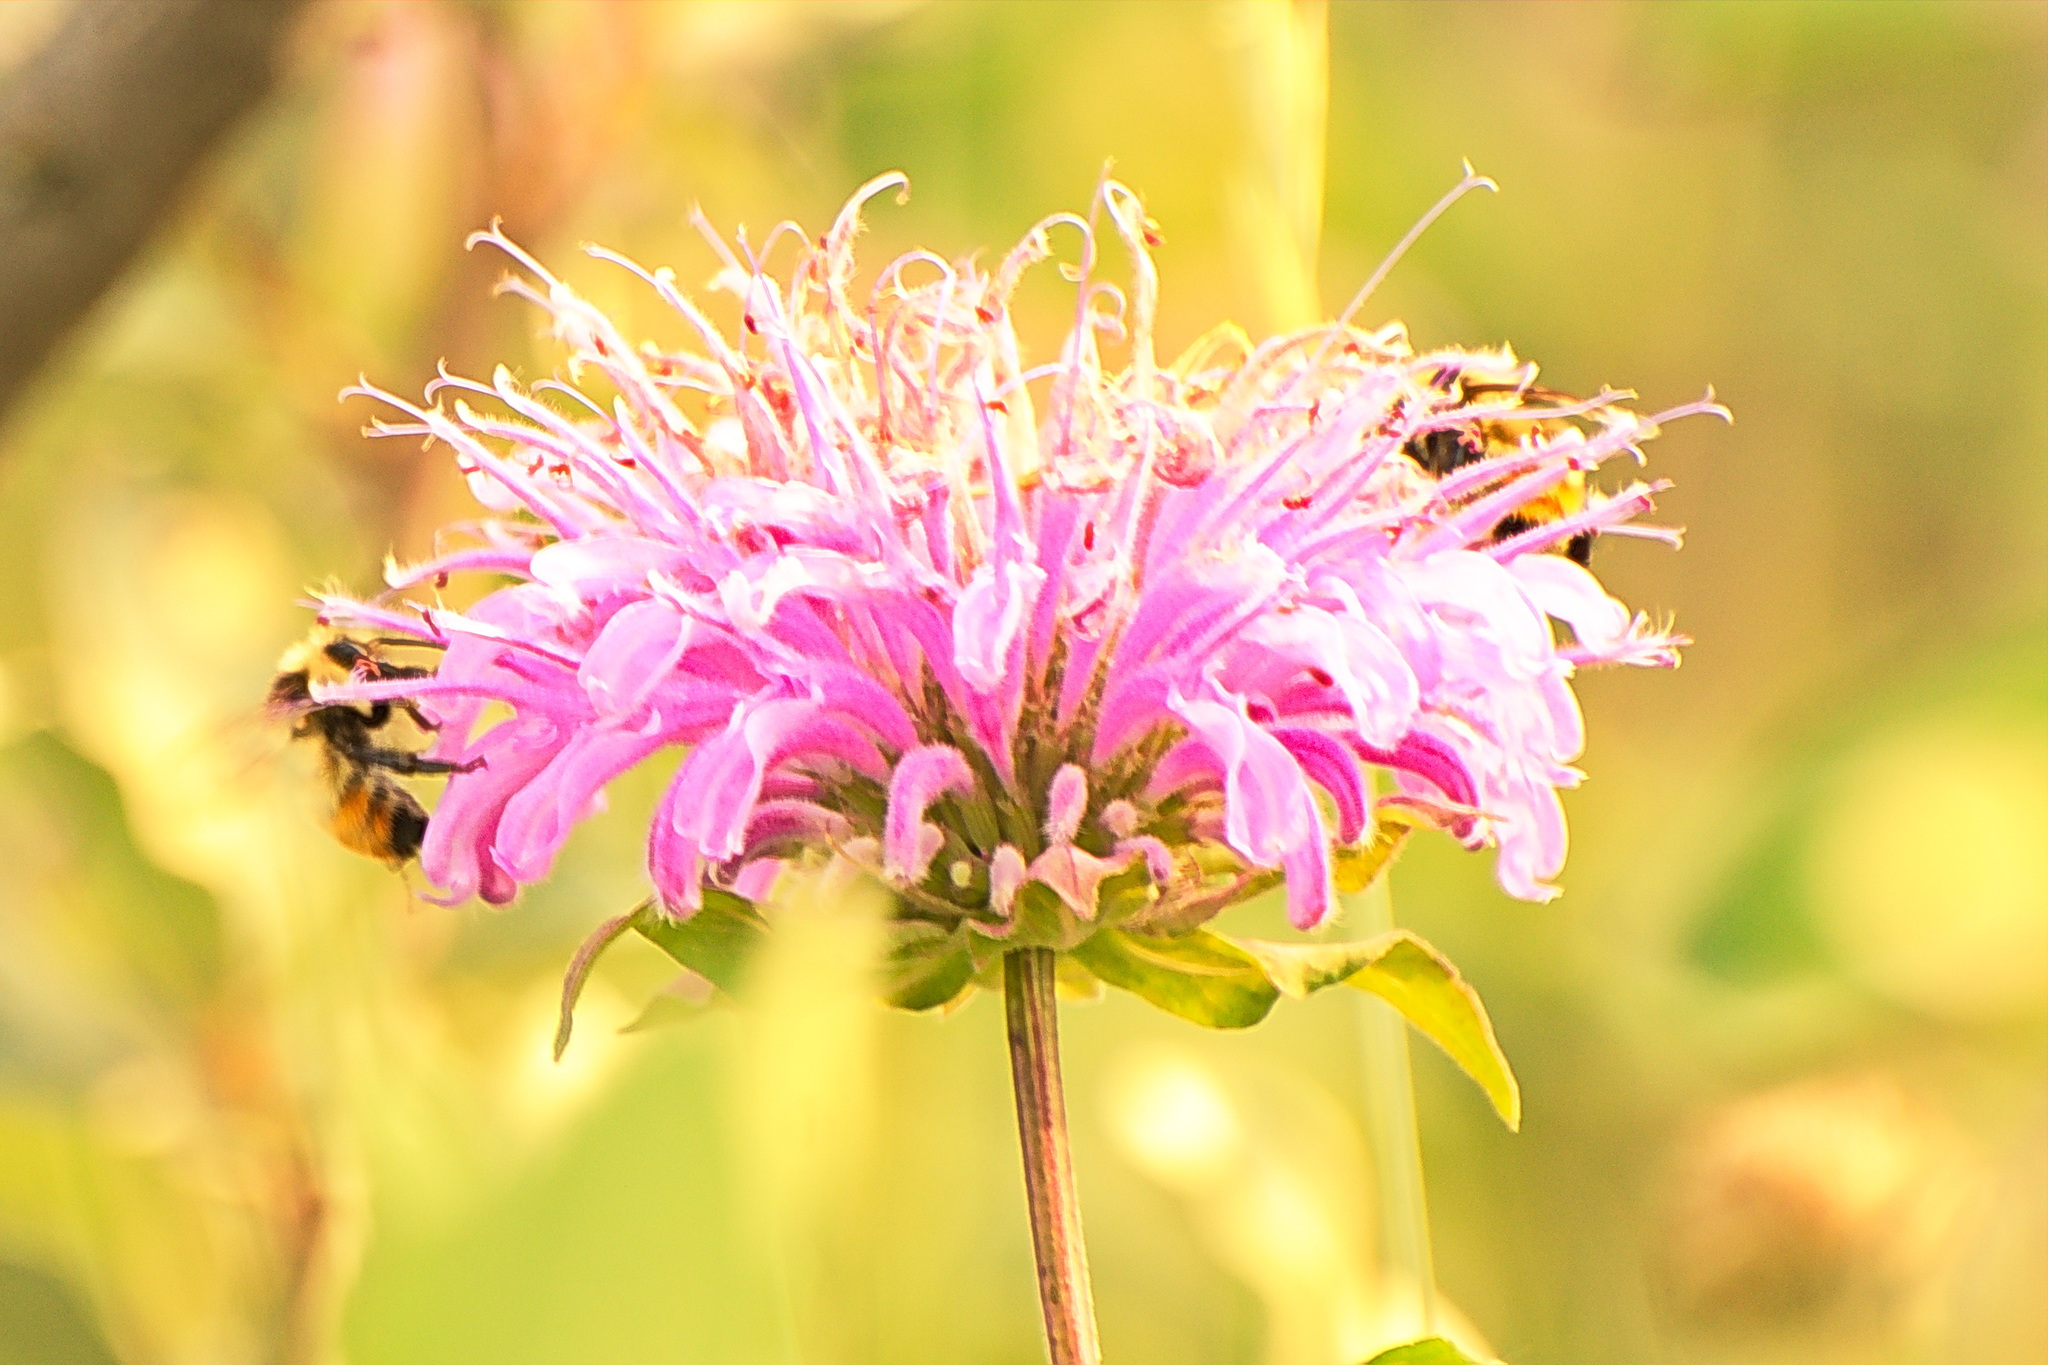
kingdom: Animalia
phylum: Arthropoda
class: Insecta
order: Hymenoptera
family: Apidae
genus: Bombus
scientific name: Bombus centralis
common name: Central bumble bee
